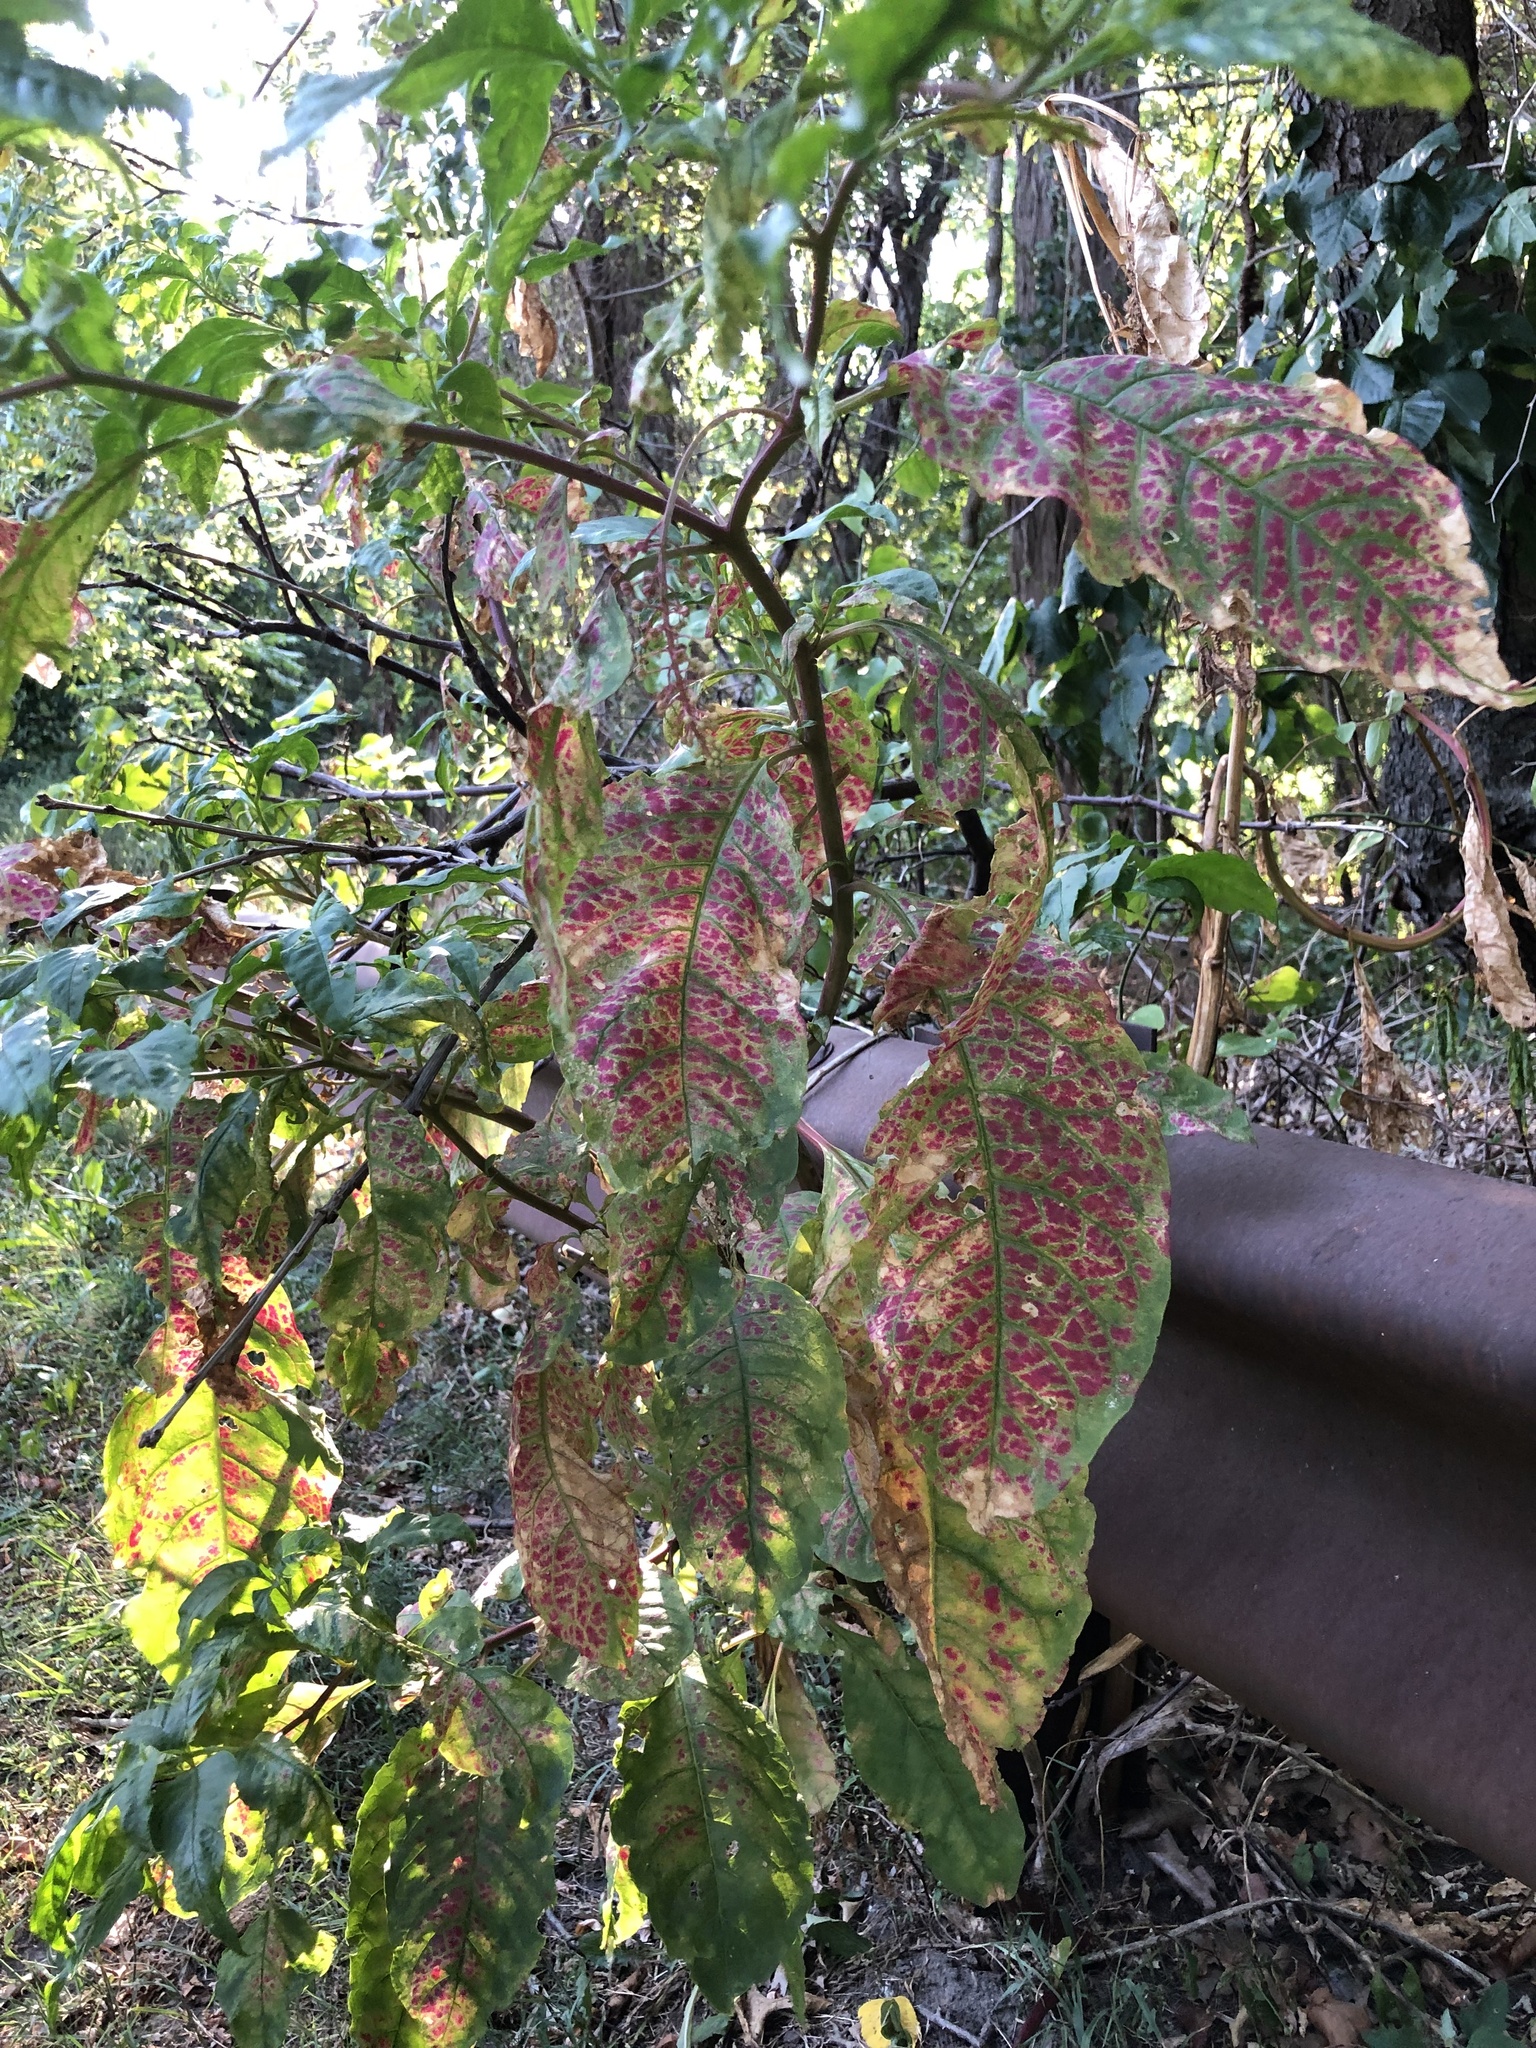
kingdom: Viruses
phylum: Pisuviricota
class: Stelpaviricetes
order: Patatavirales
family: Potyviridae
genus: Potyvirus
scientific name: Potyvirus Pokeweed mosaic virus
